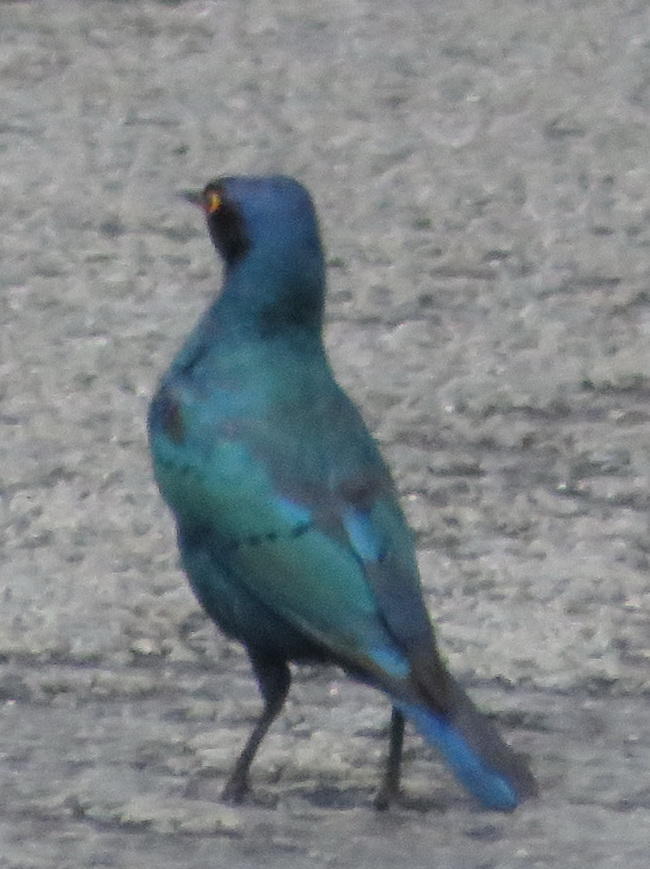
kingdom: Animalia
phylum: Chordata
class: Aves
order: Passeriformes
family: Sturnidae
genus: Lamprotornis
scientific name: Lamprotornis nitens
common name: Cape starling
